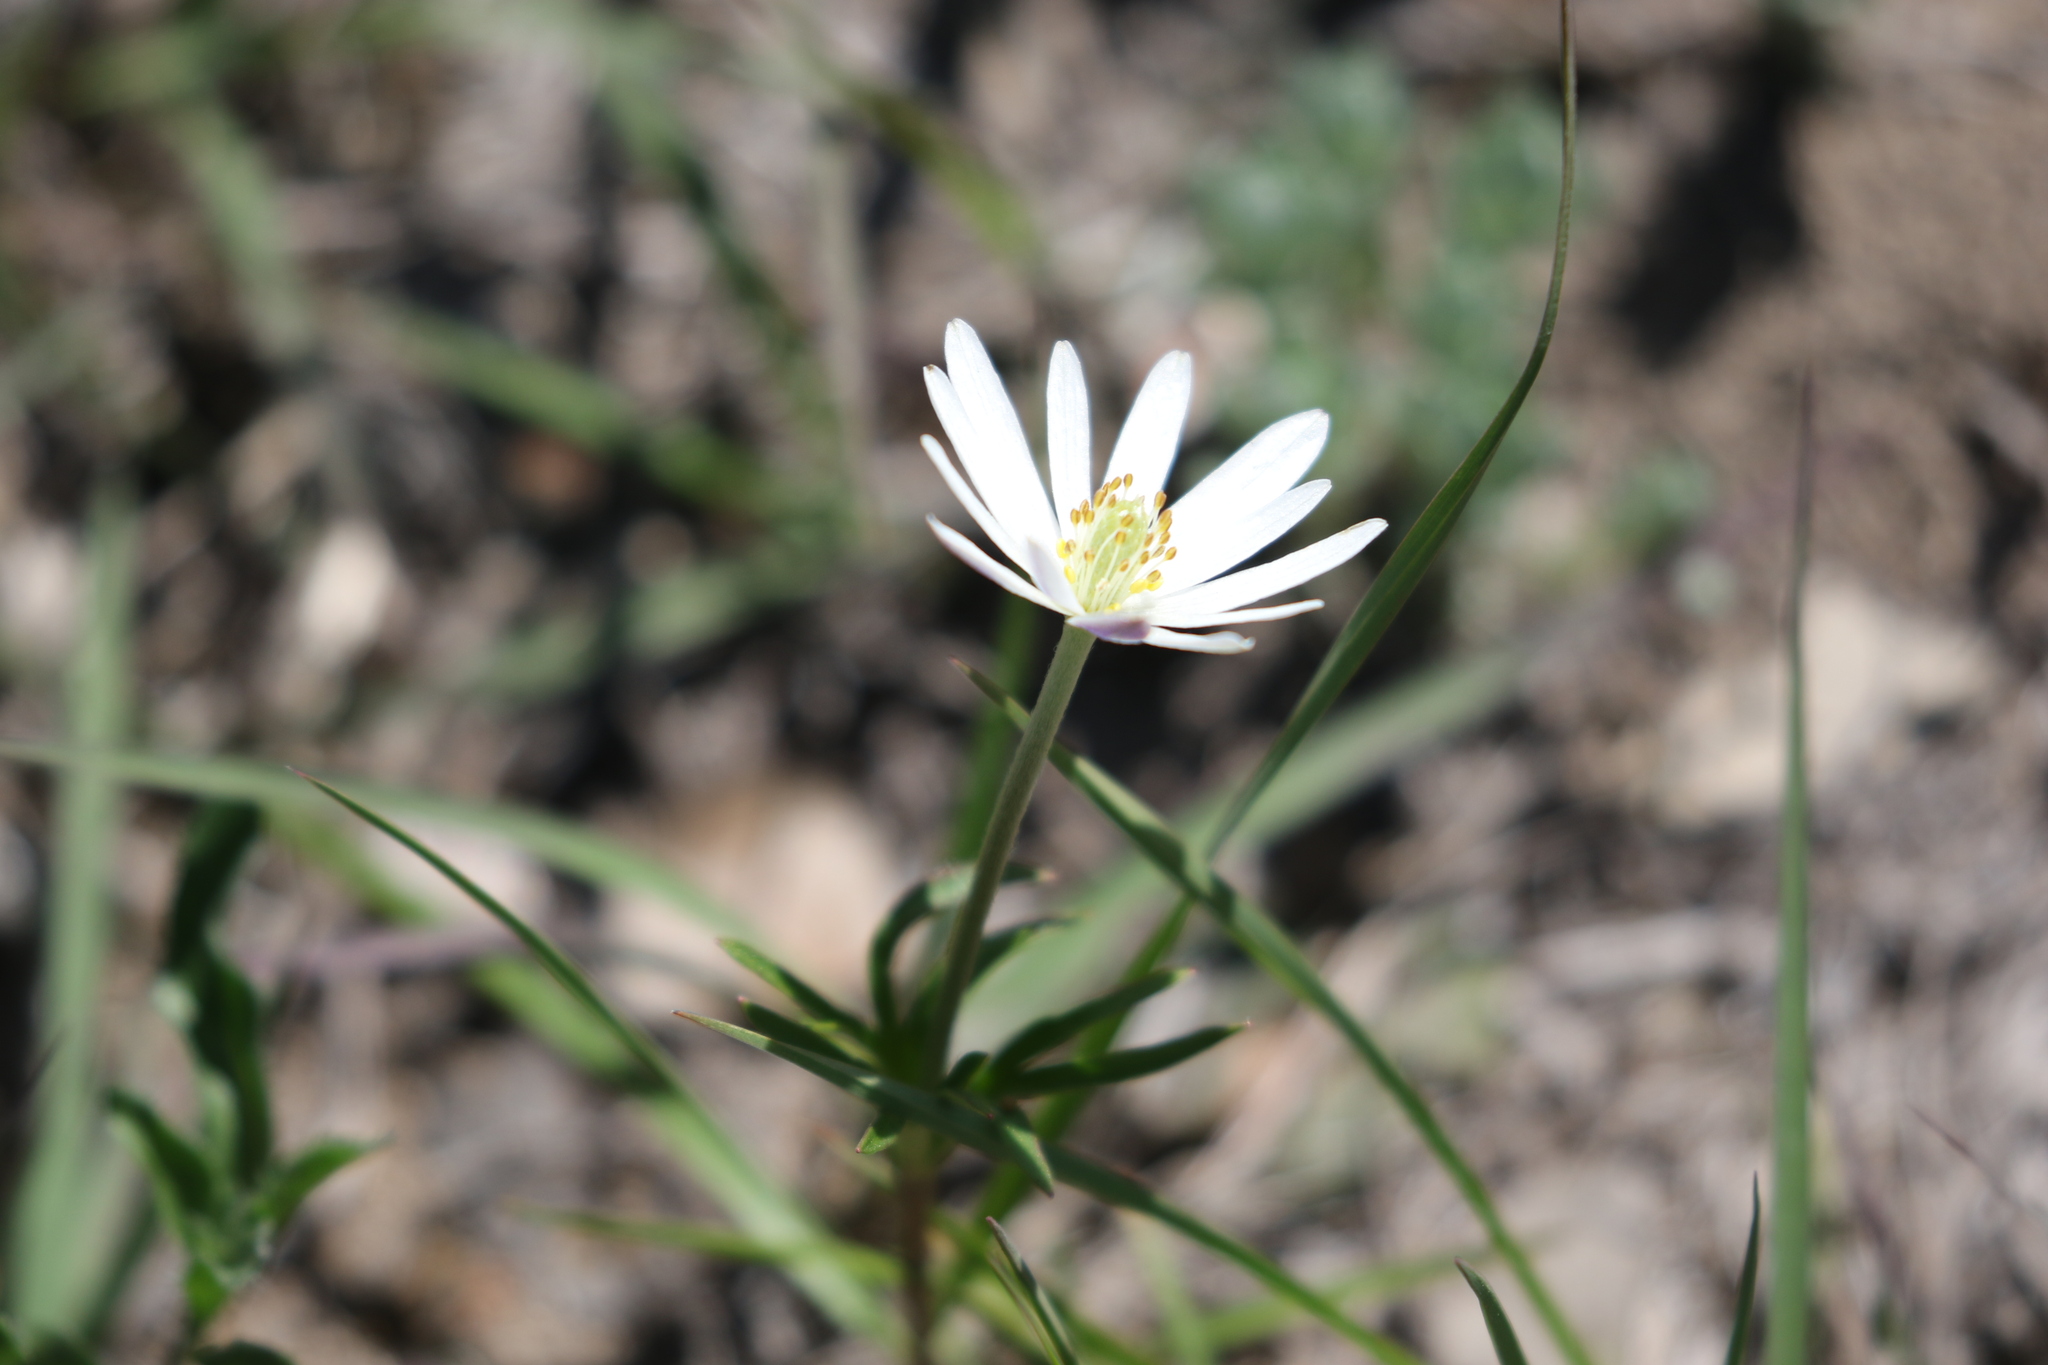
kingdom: Plantae
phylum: Tracheophyta
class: Magnoliopsida
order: Ranunculales
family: Ranunculaceae
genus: Anemone
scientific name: Anemone berlandieri
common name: Ten-petal anemone
